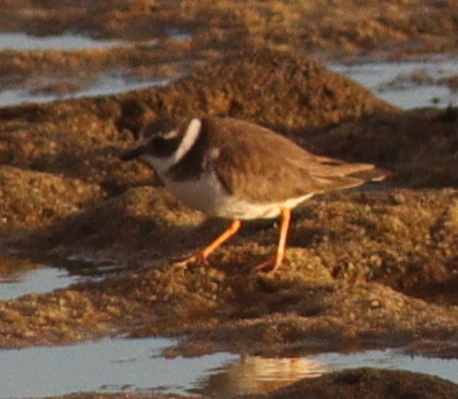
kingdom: Animalia
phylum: Chordata
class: Aves
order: Charadriiformes
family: Charadriidae
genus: Charadrius
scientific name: Charadrius hiaticula
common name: Common ringed plover
